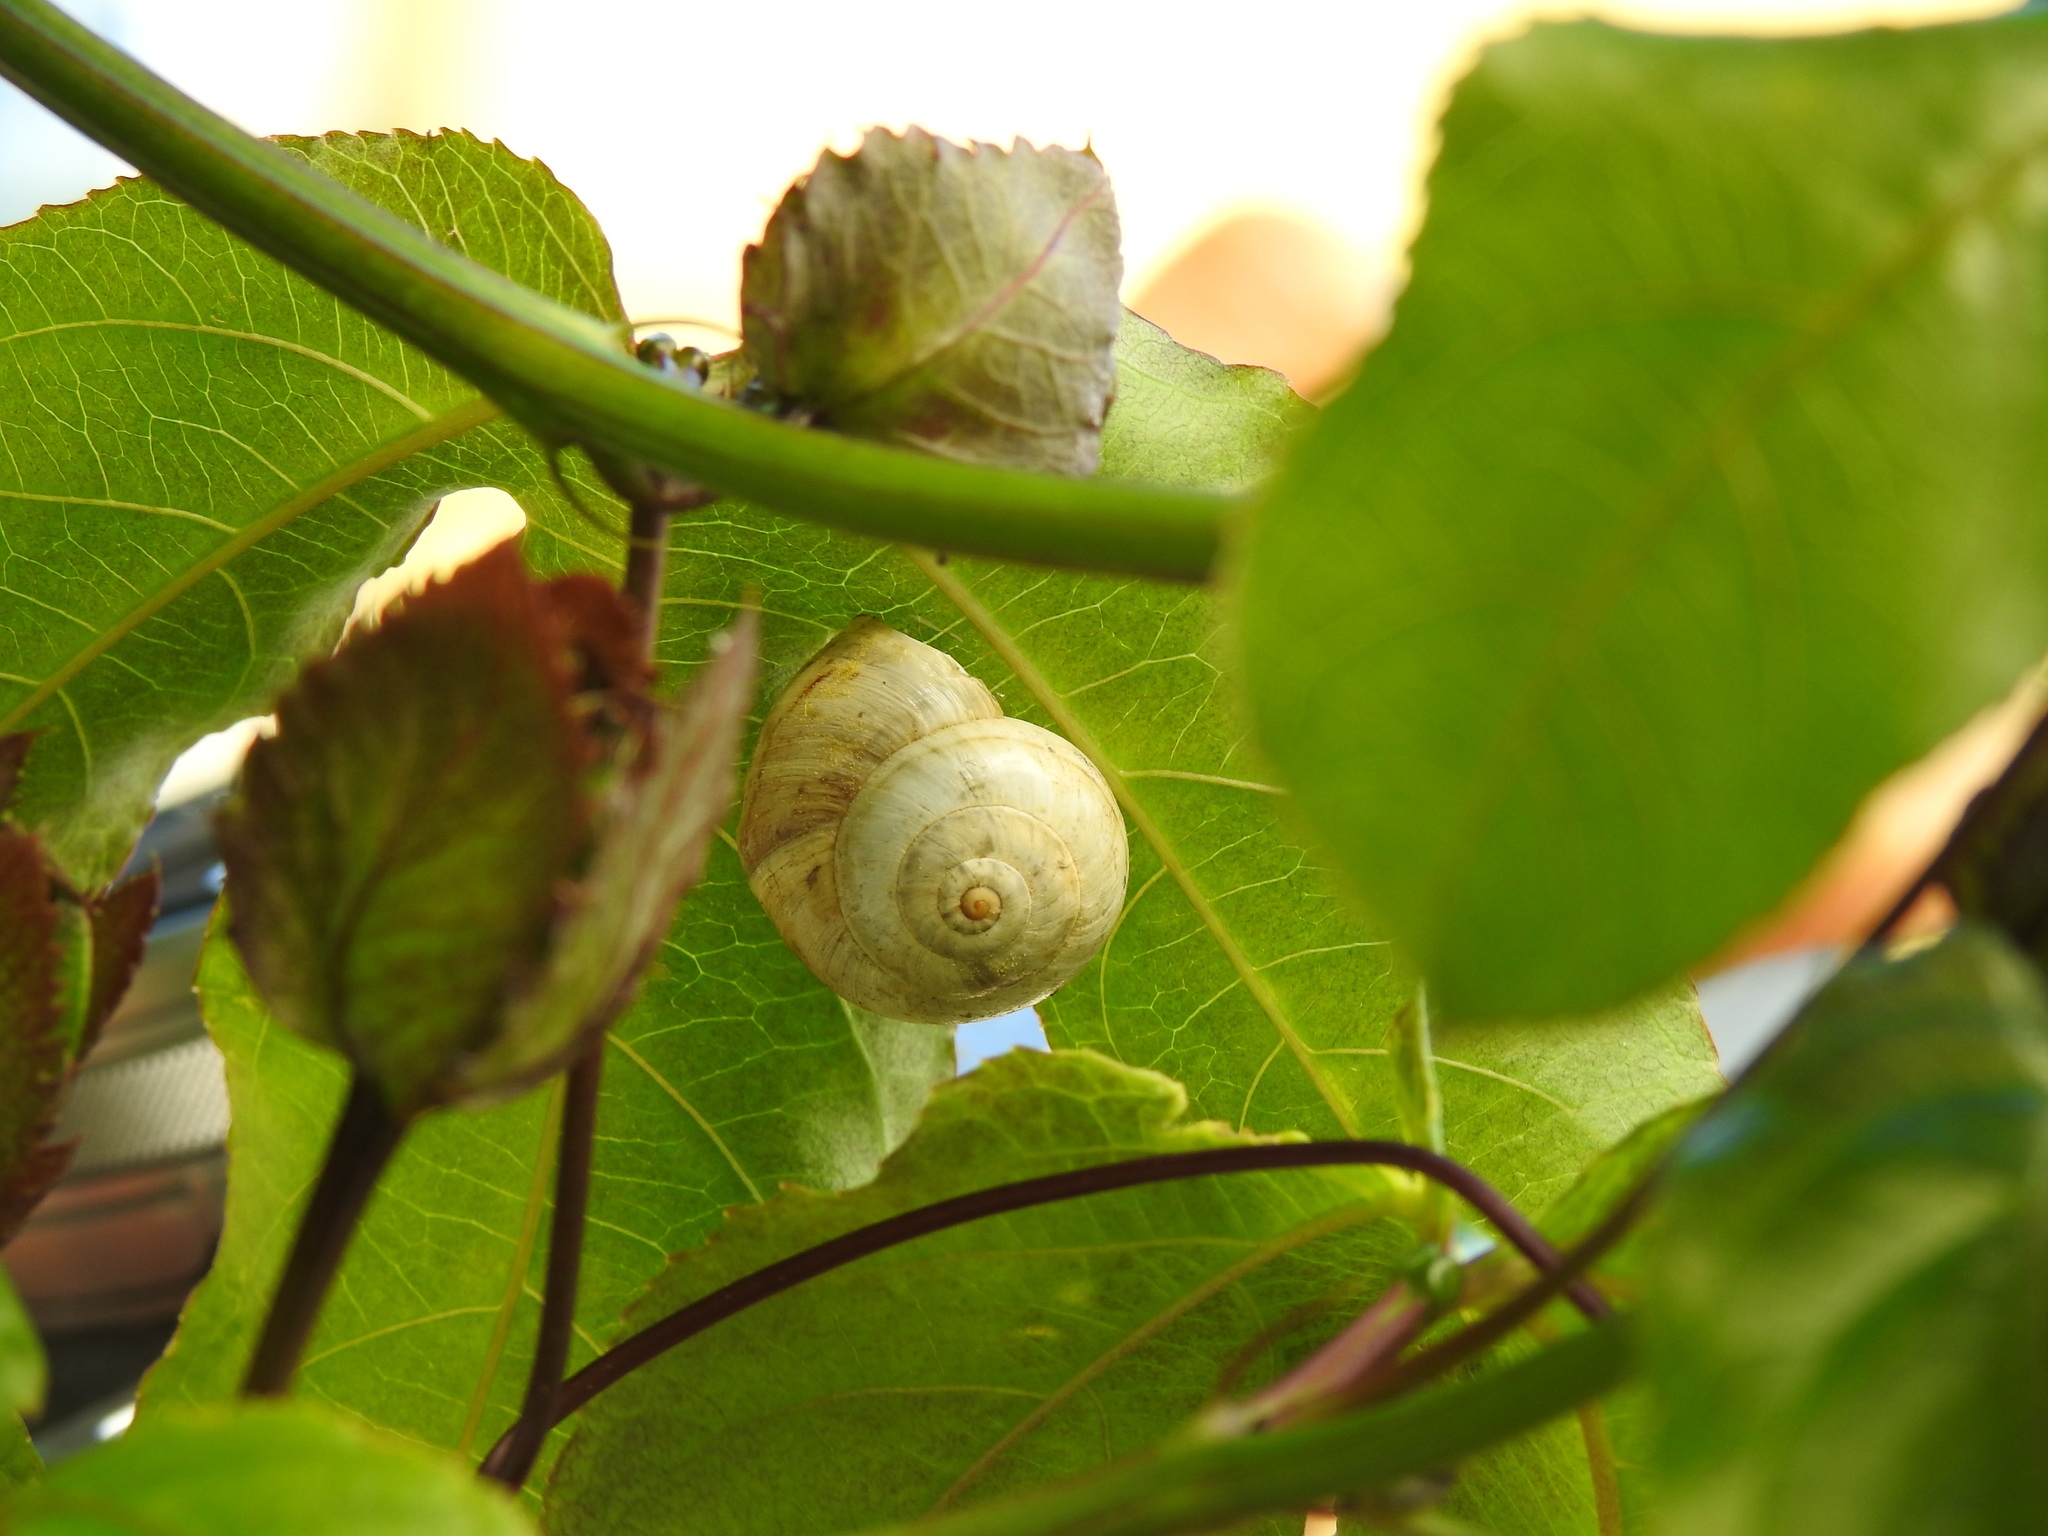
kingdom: Animalia
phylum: Mollusca
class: Gastropoda
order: Stylommatophora
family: Helicidae
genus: Theba
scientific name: Theba pisana
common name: White snail
